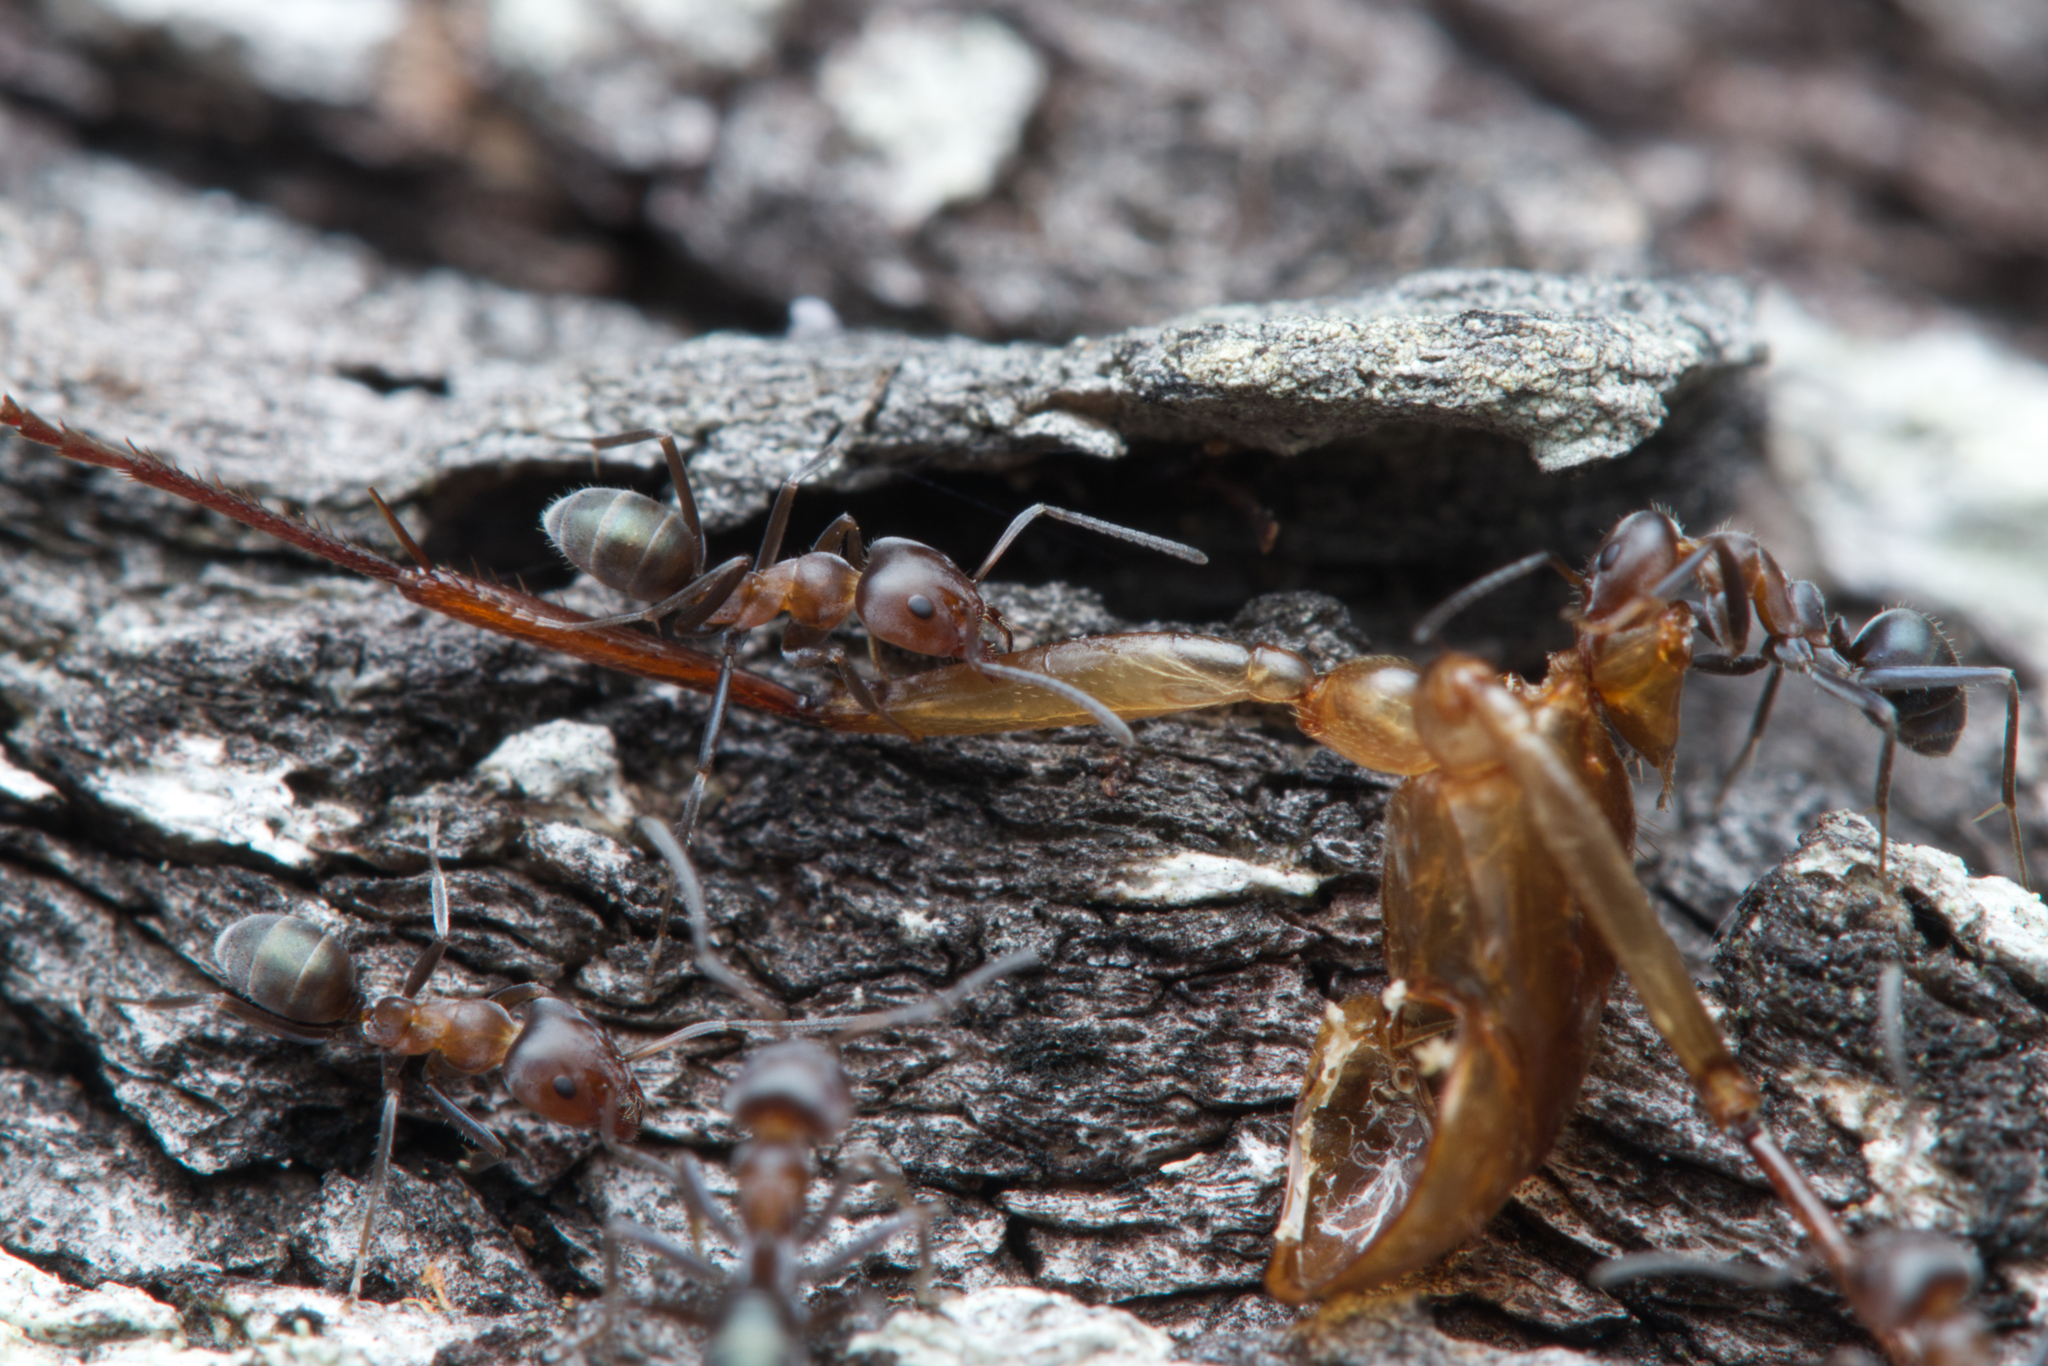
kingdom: Animalia
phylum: Arthropoda
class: Insecta
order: Hymenoptera
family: Formicidae
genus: Iridomyrmex
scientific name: Iridomyrmex rufoniger
